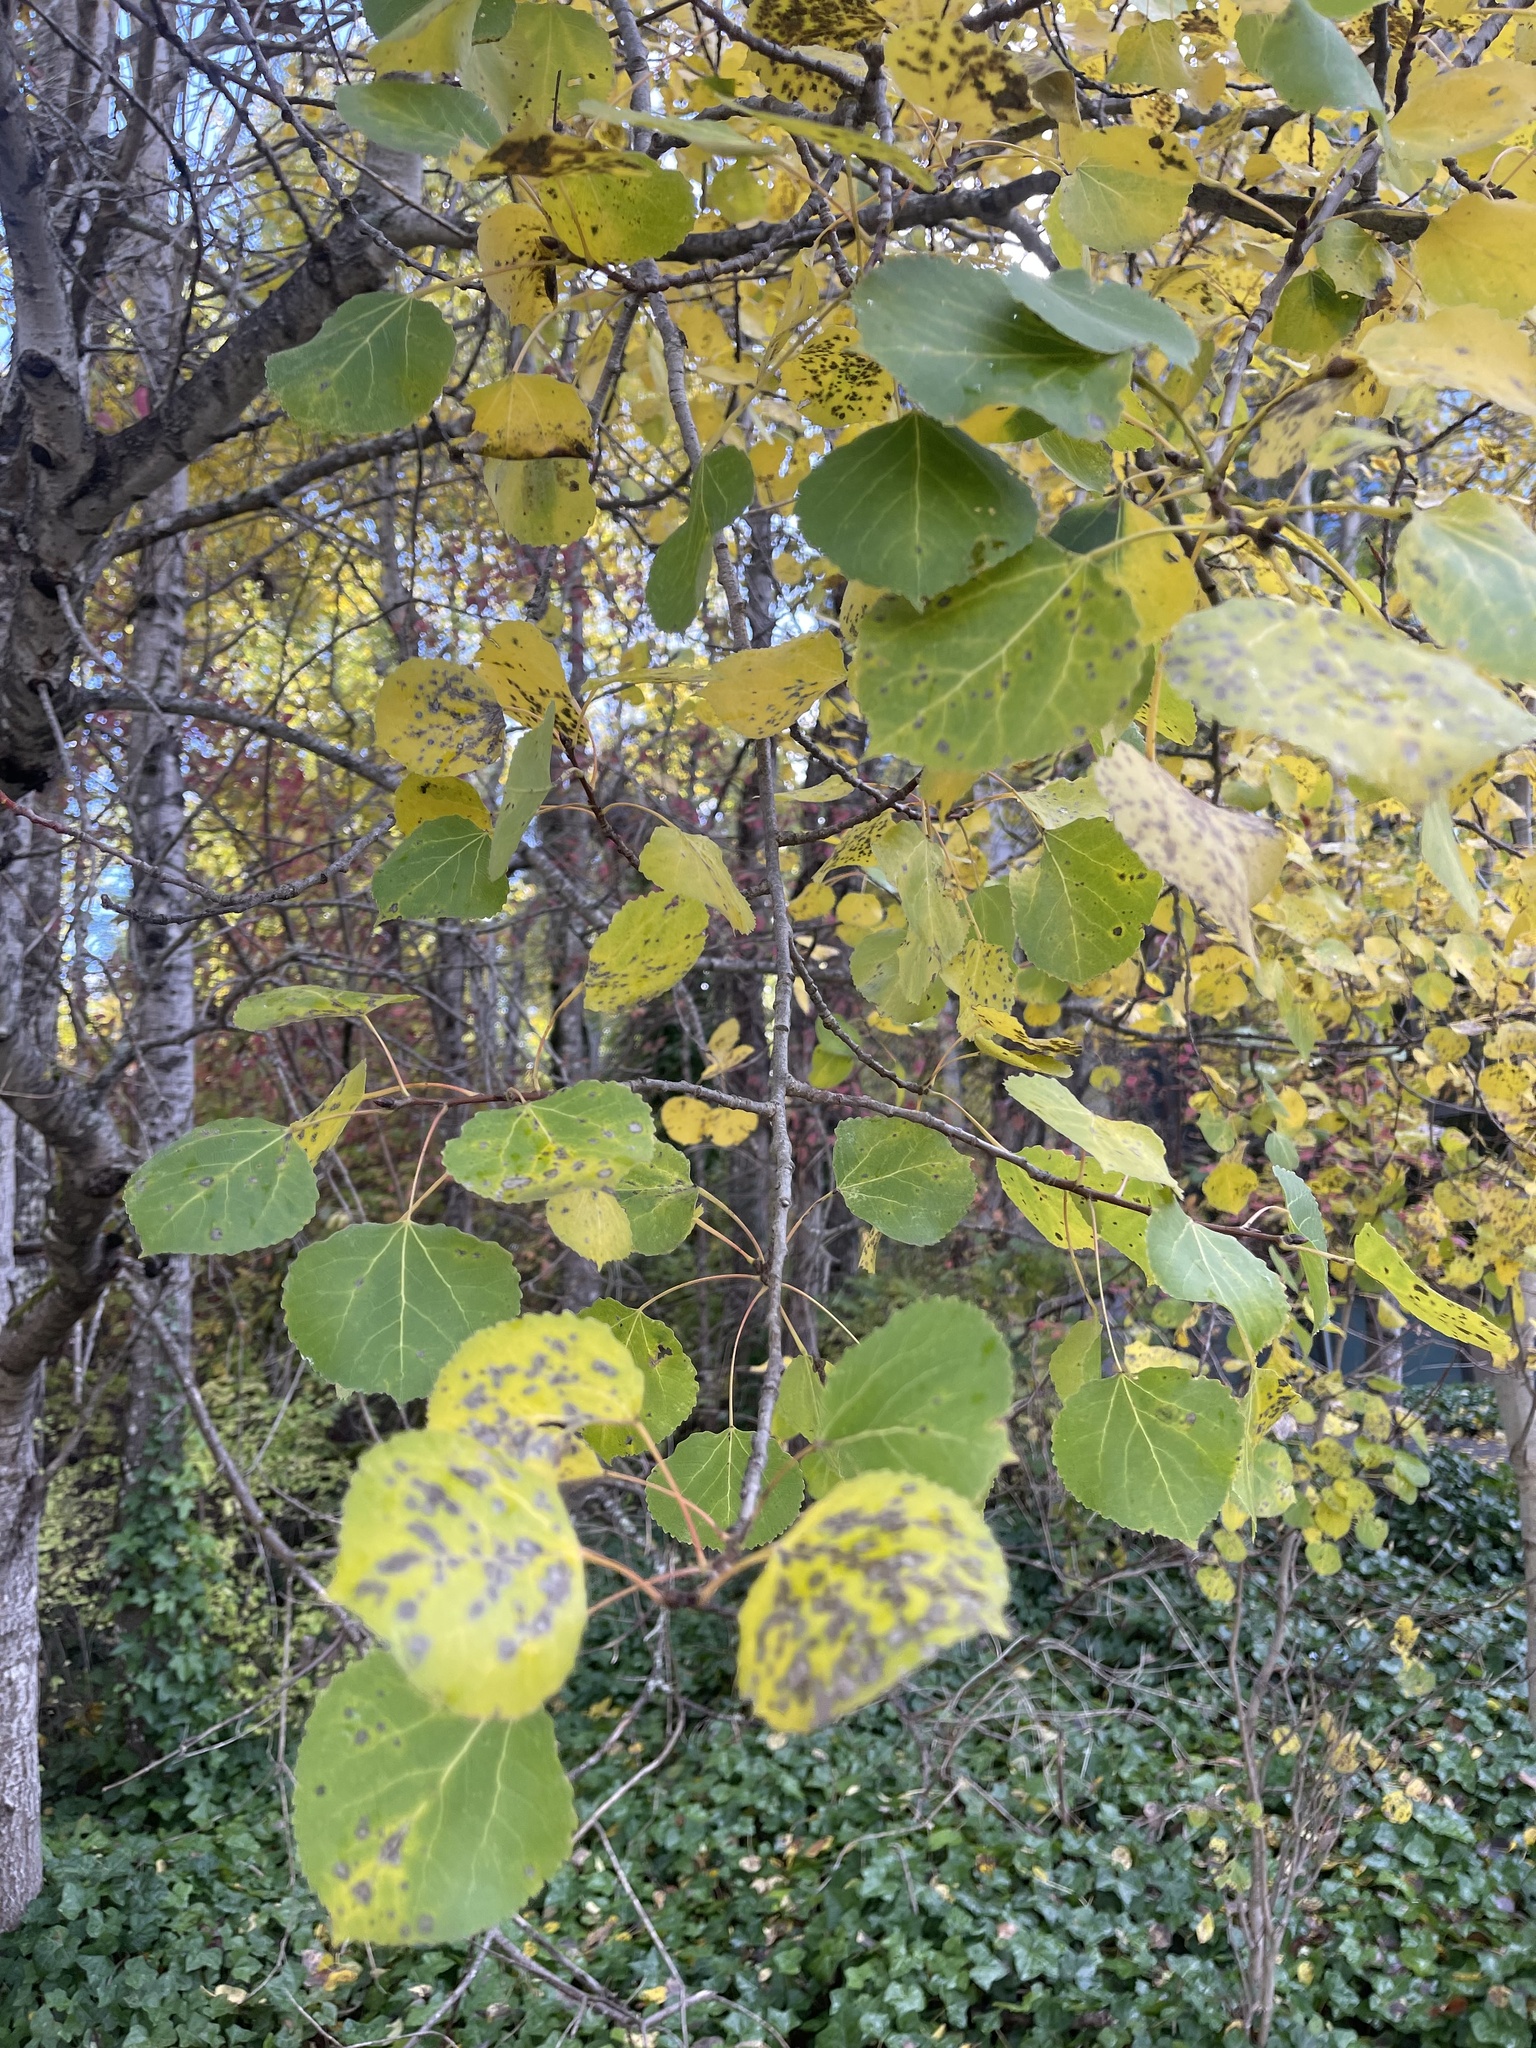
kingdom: Plantae
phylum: Tracheophyta
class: Magnoliopsida
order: Malpighiales
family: Salicaceae
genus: Populus
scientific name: Populus tremuloides
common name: Quaking aspen
